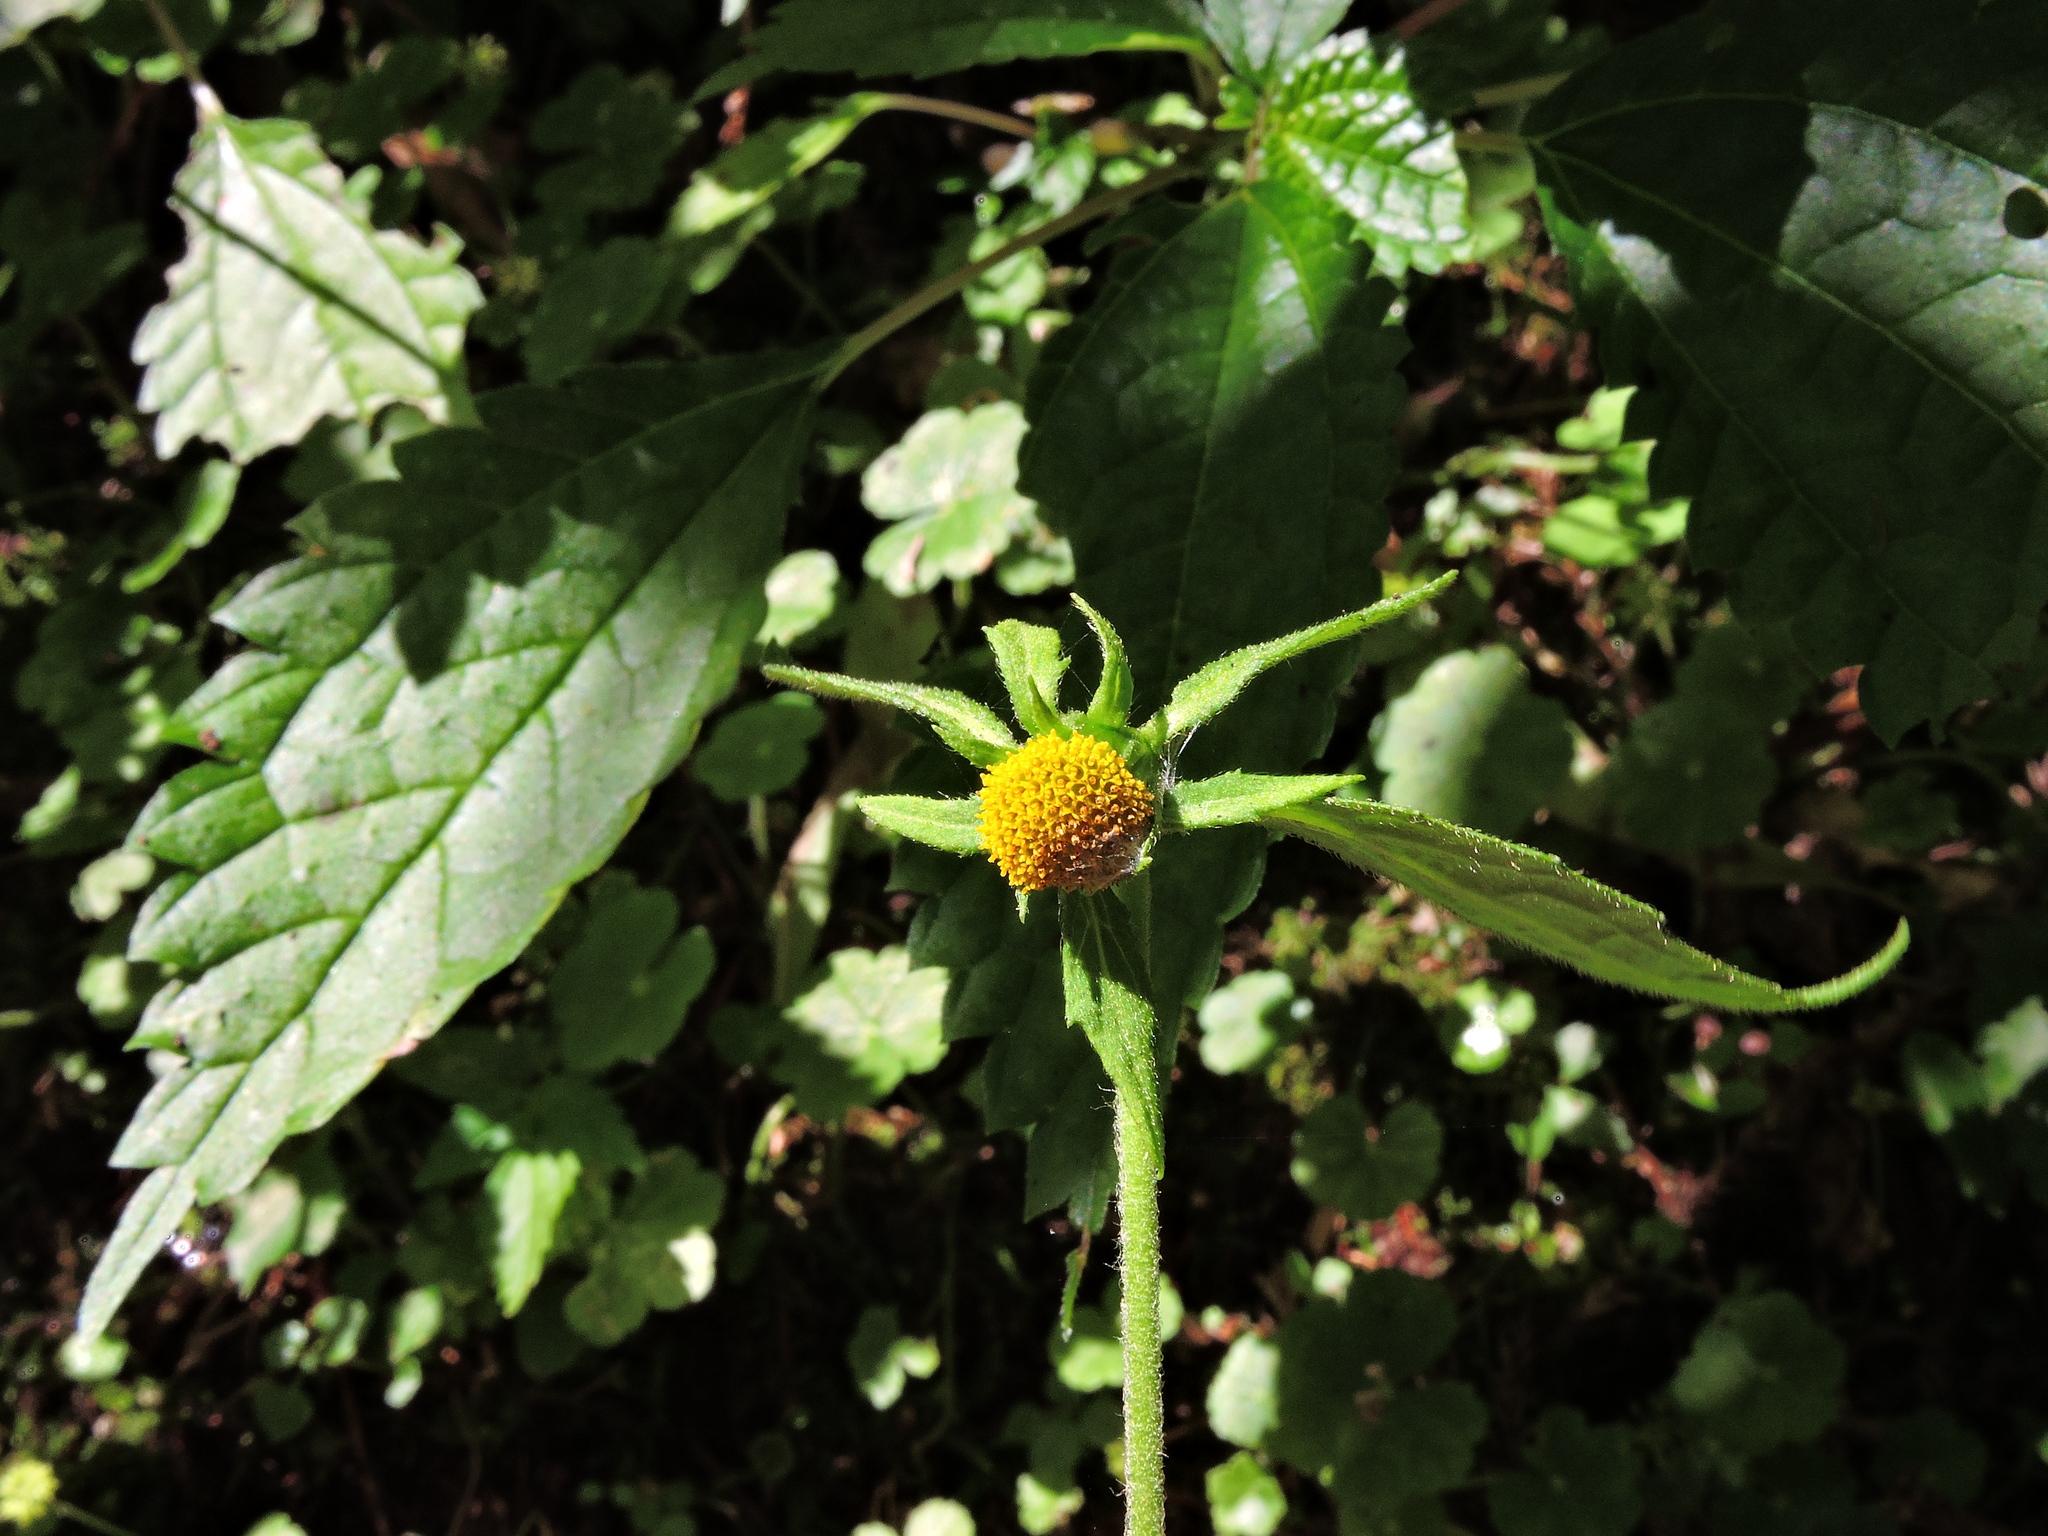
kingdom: Plantae
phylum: Tracheophyta
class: Magnoliopsida
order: Asterales
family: Asteraceae
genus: Carpesium
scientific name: Carpesium nepalense
